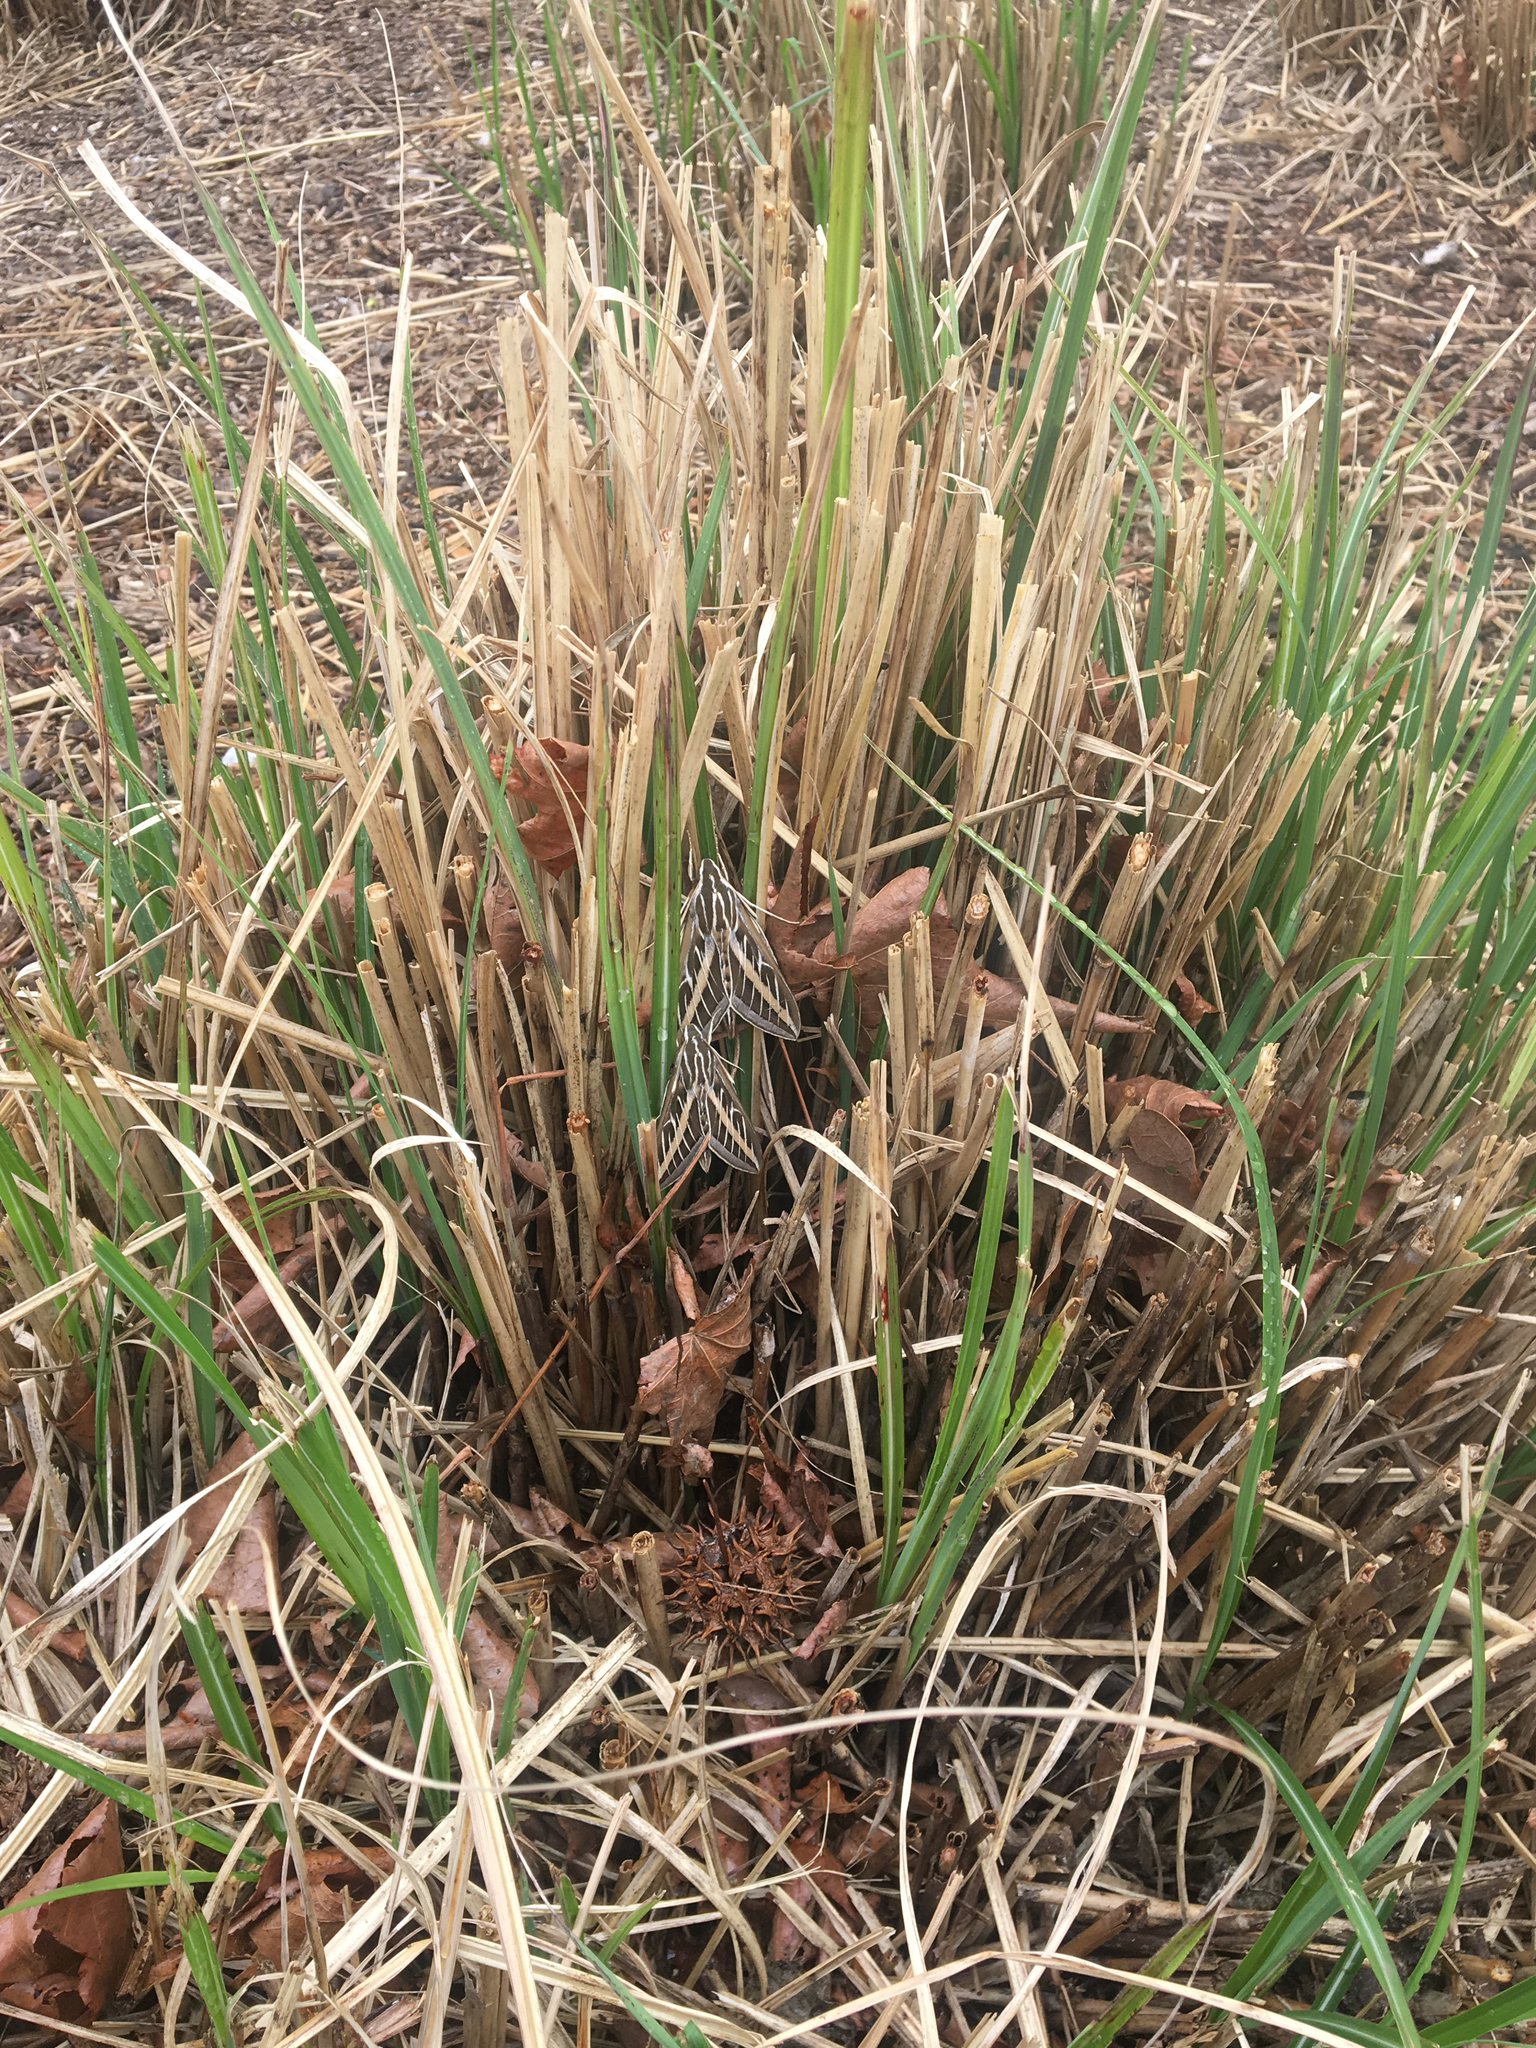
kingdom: Animalia
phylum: Arthropoda
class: Insecta
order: Lepidoptera
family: Sphingidae
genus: Hyles
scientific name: Hyles lineata
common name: White-lined sphinx
